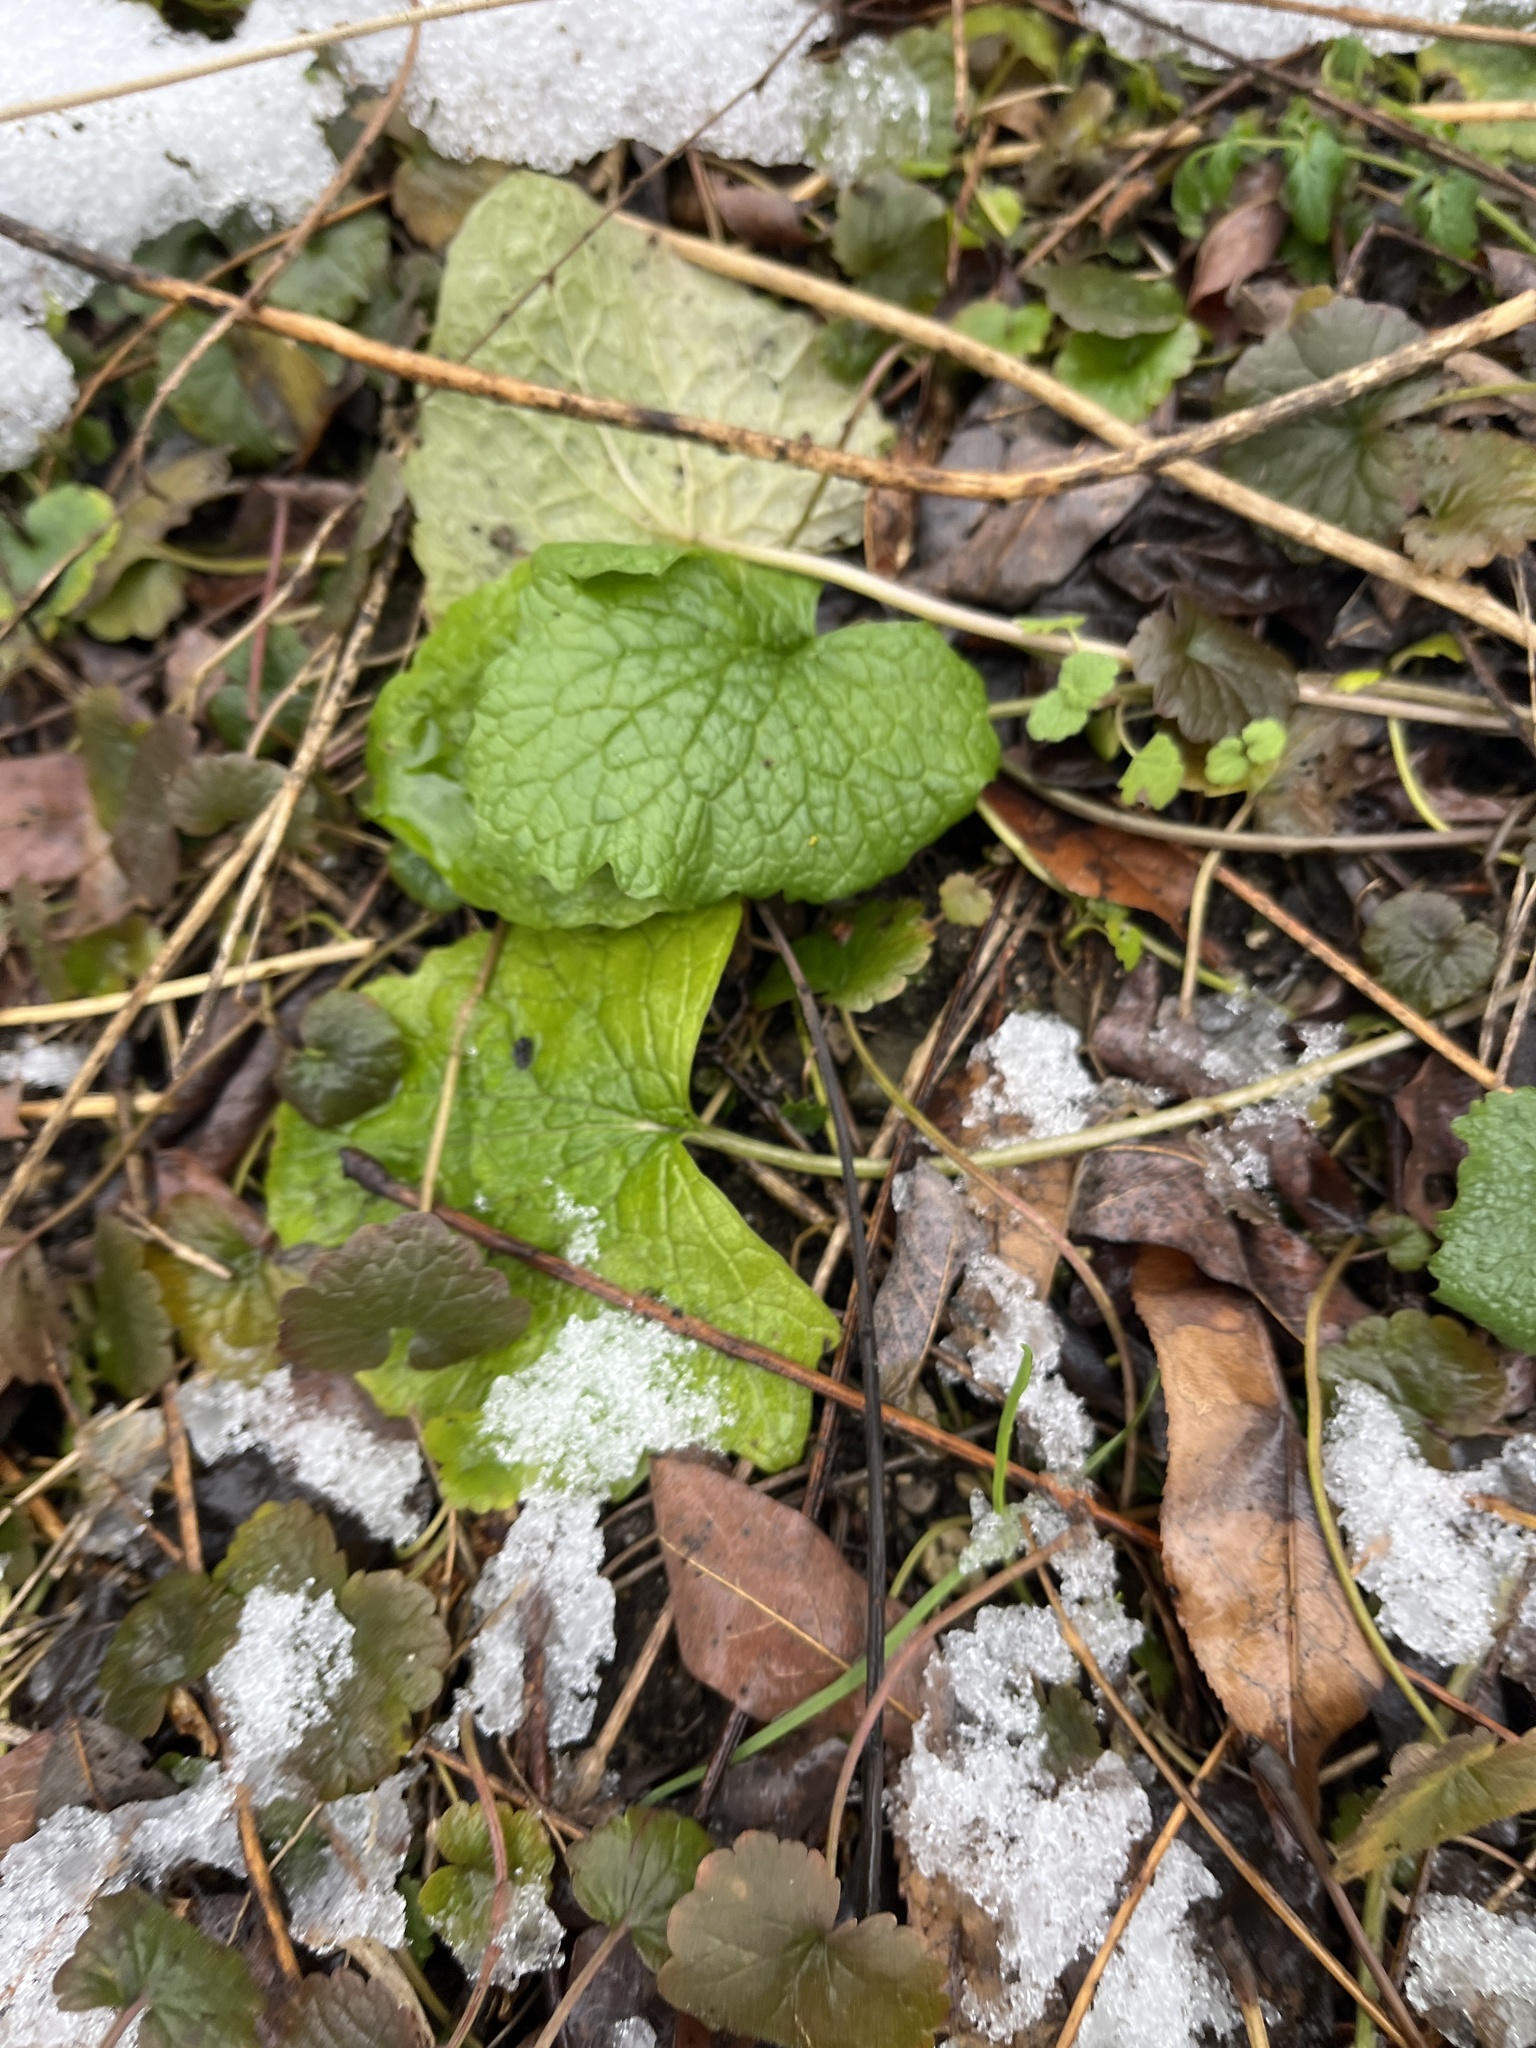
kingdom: Plantae
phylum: Tracheophyta
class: Magnoliopsida
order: Brassicales
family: Brassicaceae
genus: Alliaria
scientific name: Alliaria petiolata
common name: Garlic mustard
